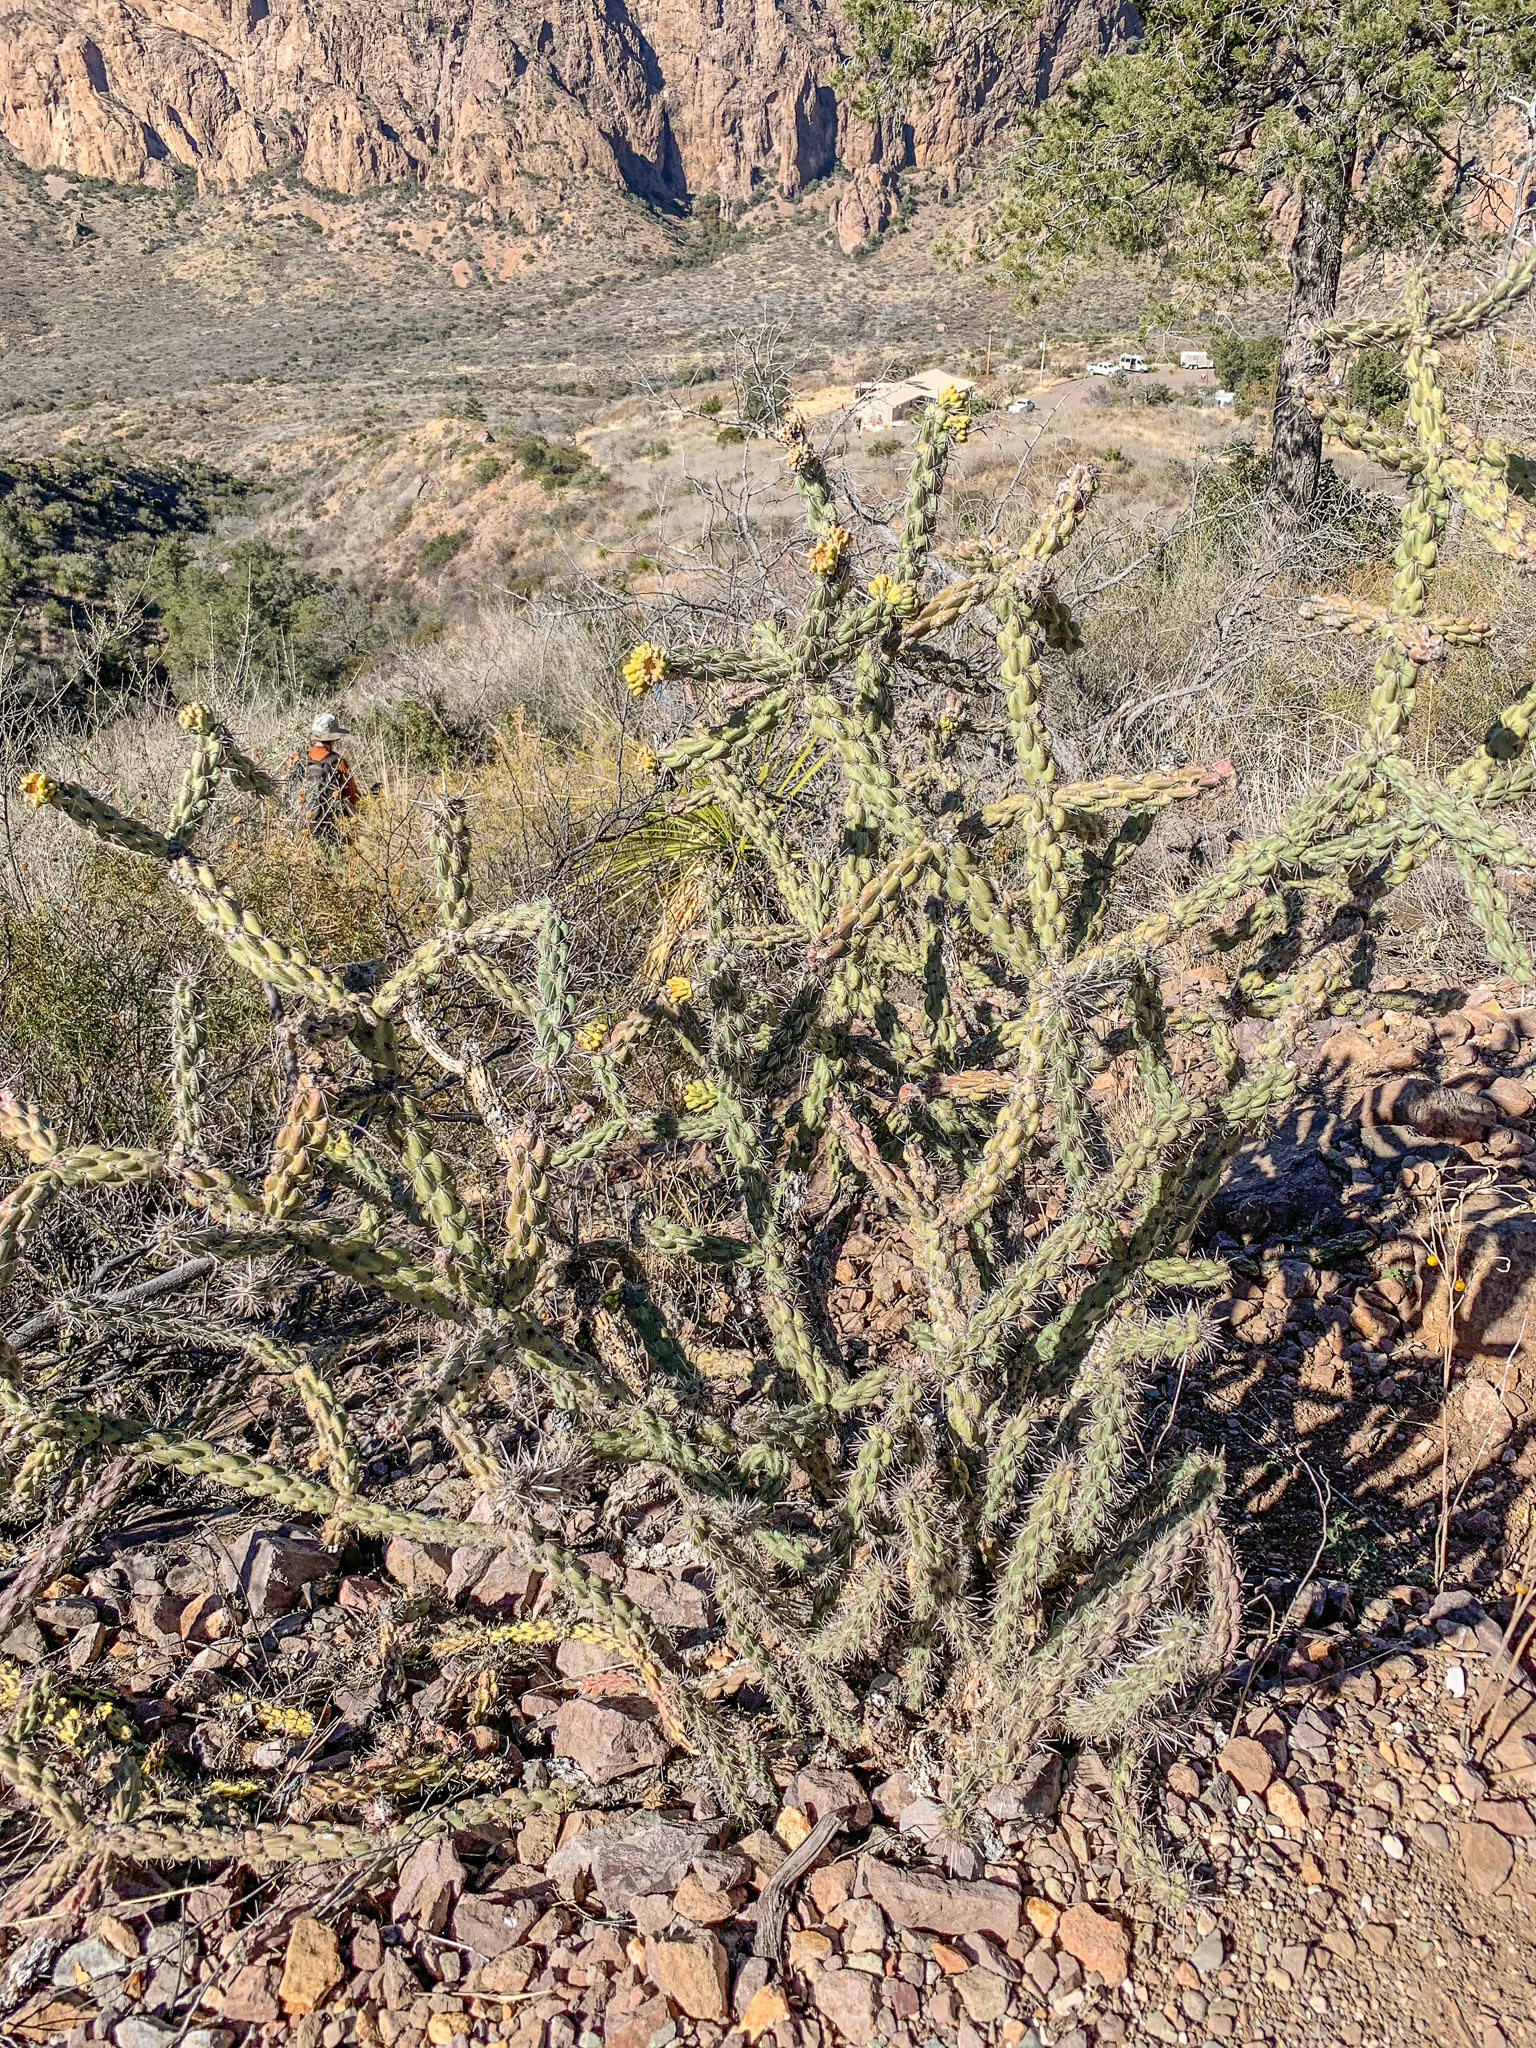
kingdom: Plantae
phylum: Tracheophyta
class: Magnoliopsida
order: Caryophyllales
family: Cactaceae
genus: Cylindropuntia
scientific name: Cylindropuntia imbricata
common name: Candelabrum cactus
